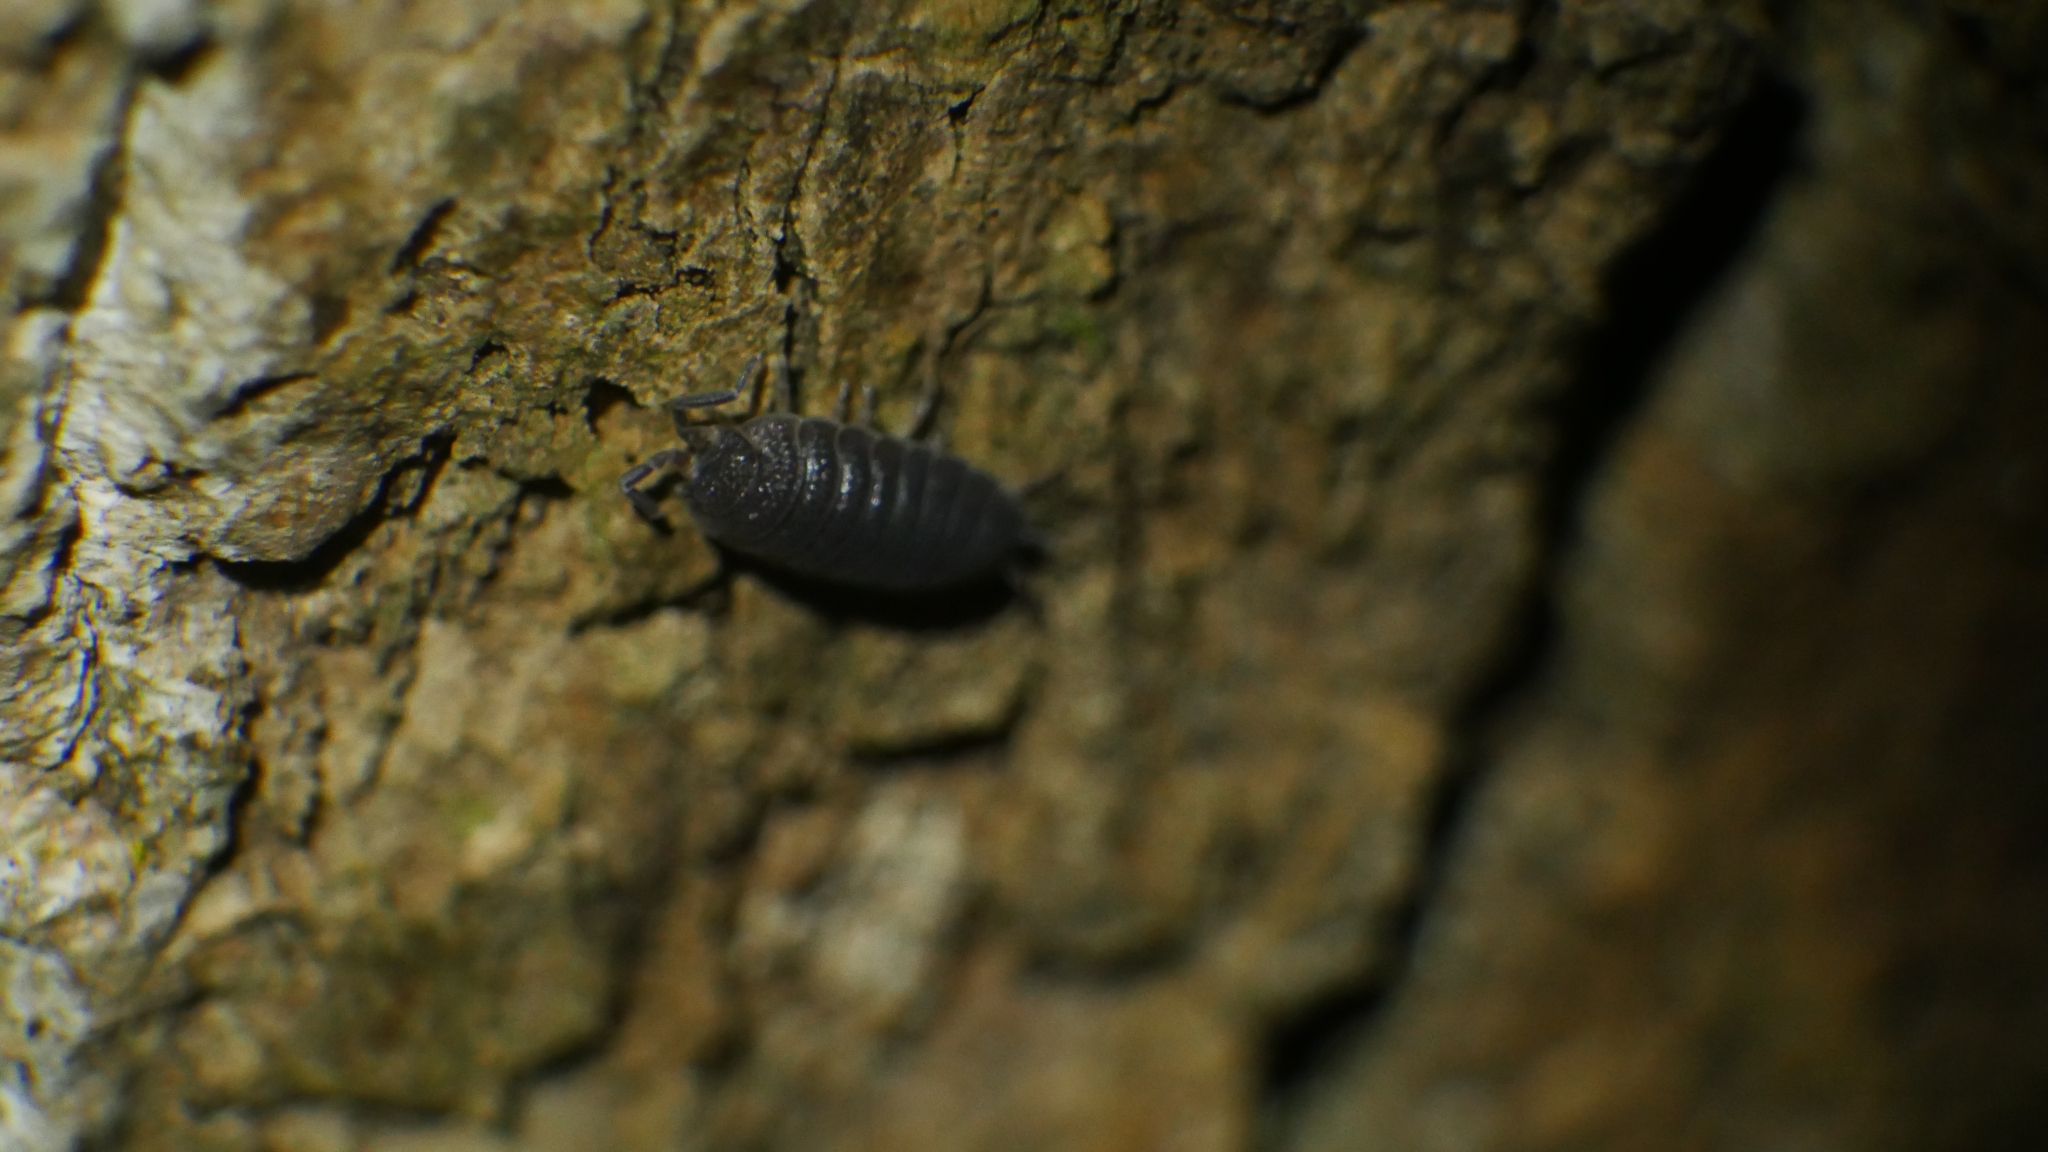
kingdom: Animalia
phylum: Arthropoda
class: Malacostraca
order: Isopoda
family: Porcellionidae
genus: Porcellio
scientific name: Porcellio scaber
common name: Common rough woodlouse
